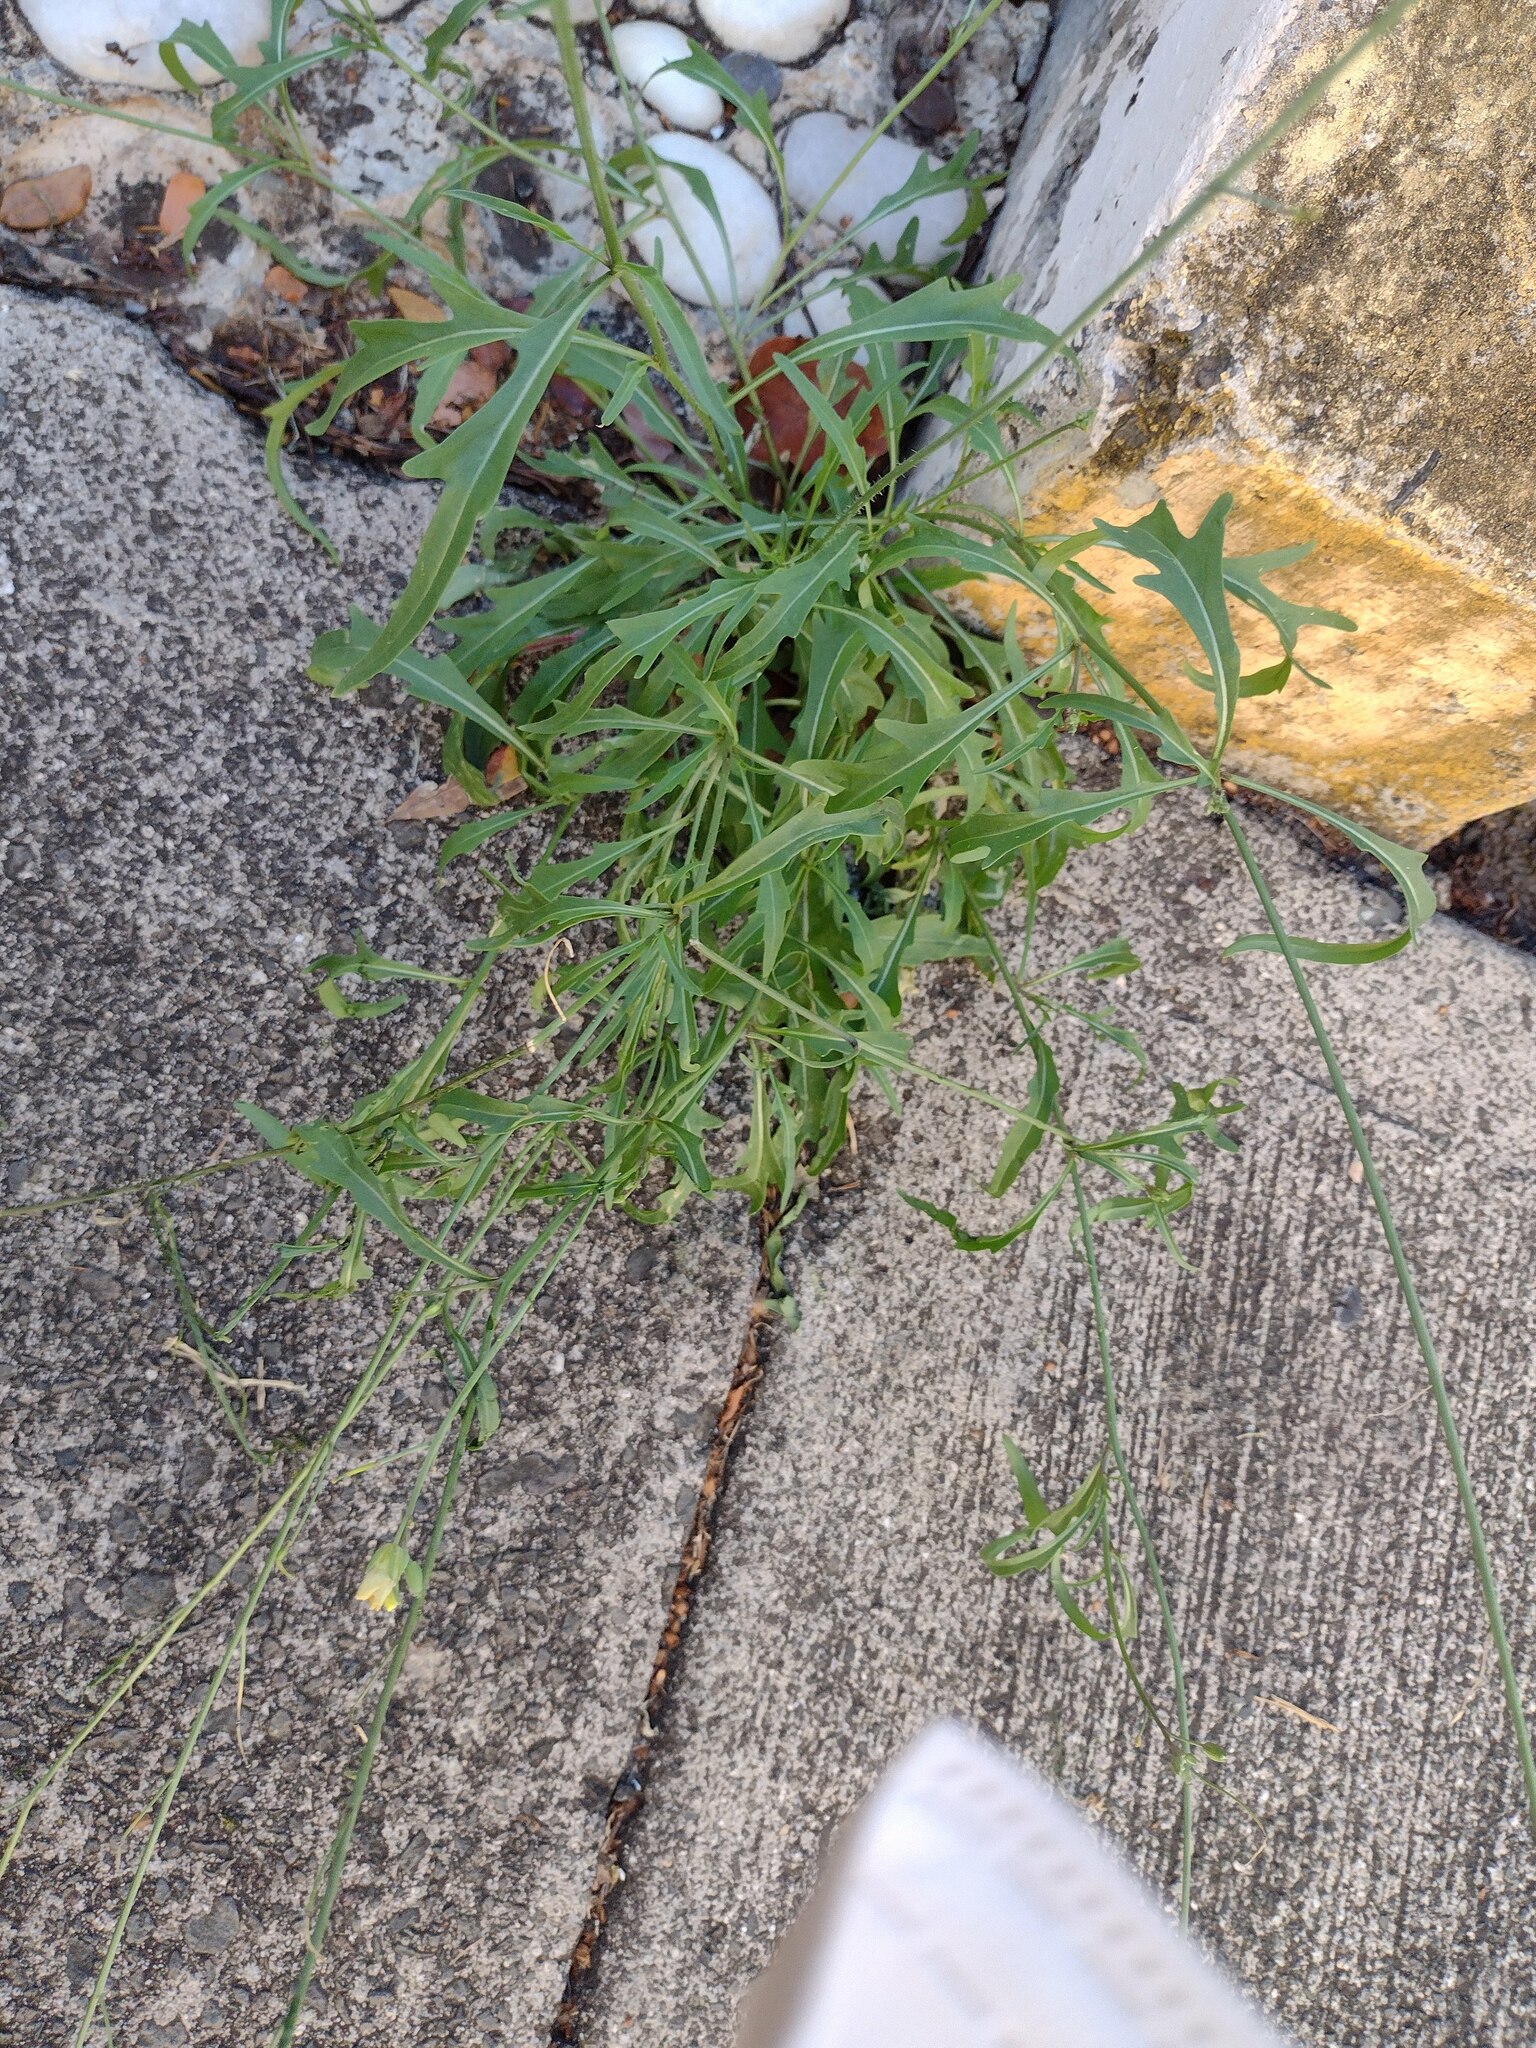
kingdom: Plantae
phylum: Tracheophyta
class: Magnoliopsida
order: Brassicales
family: Brassicaceae
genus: Diplotaxis
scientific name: Diplotaxis tenuifolia
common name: Perennial wall-rocket
